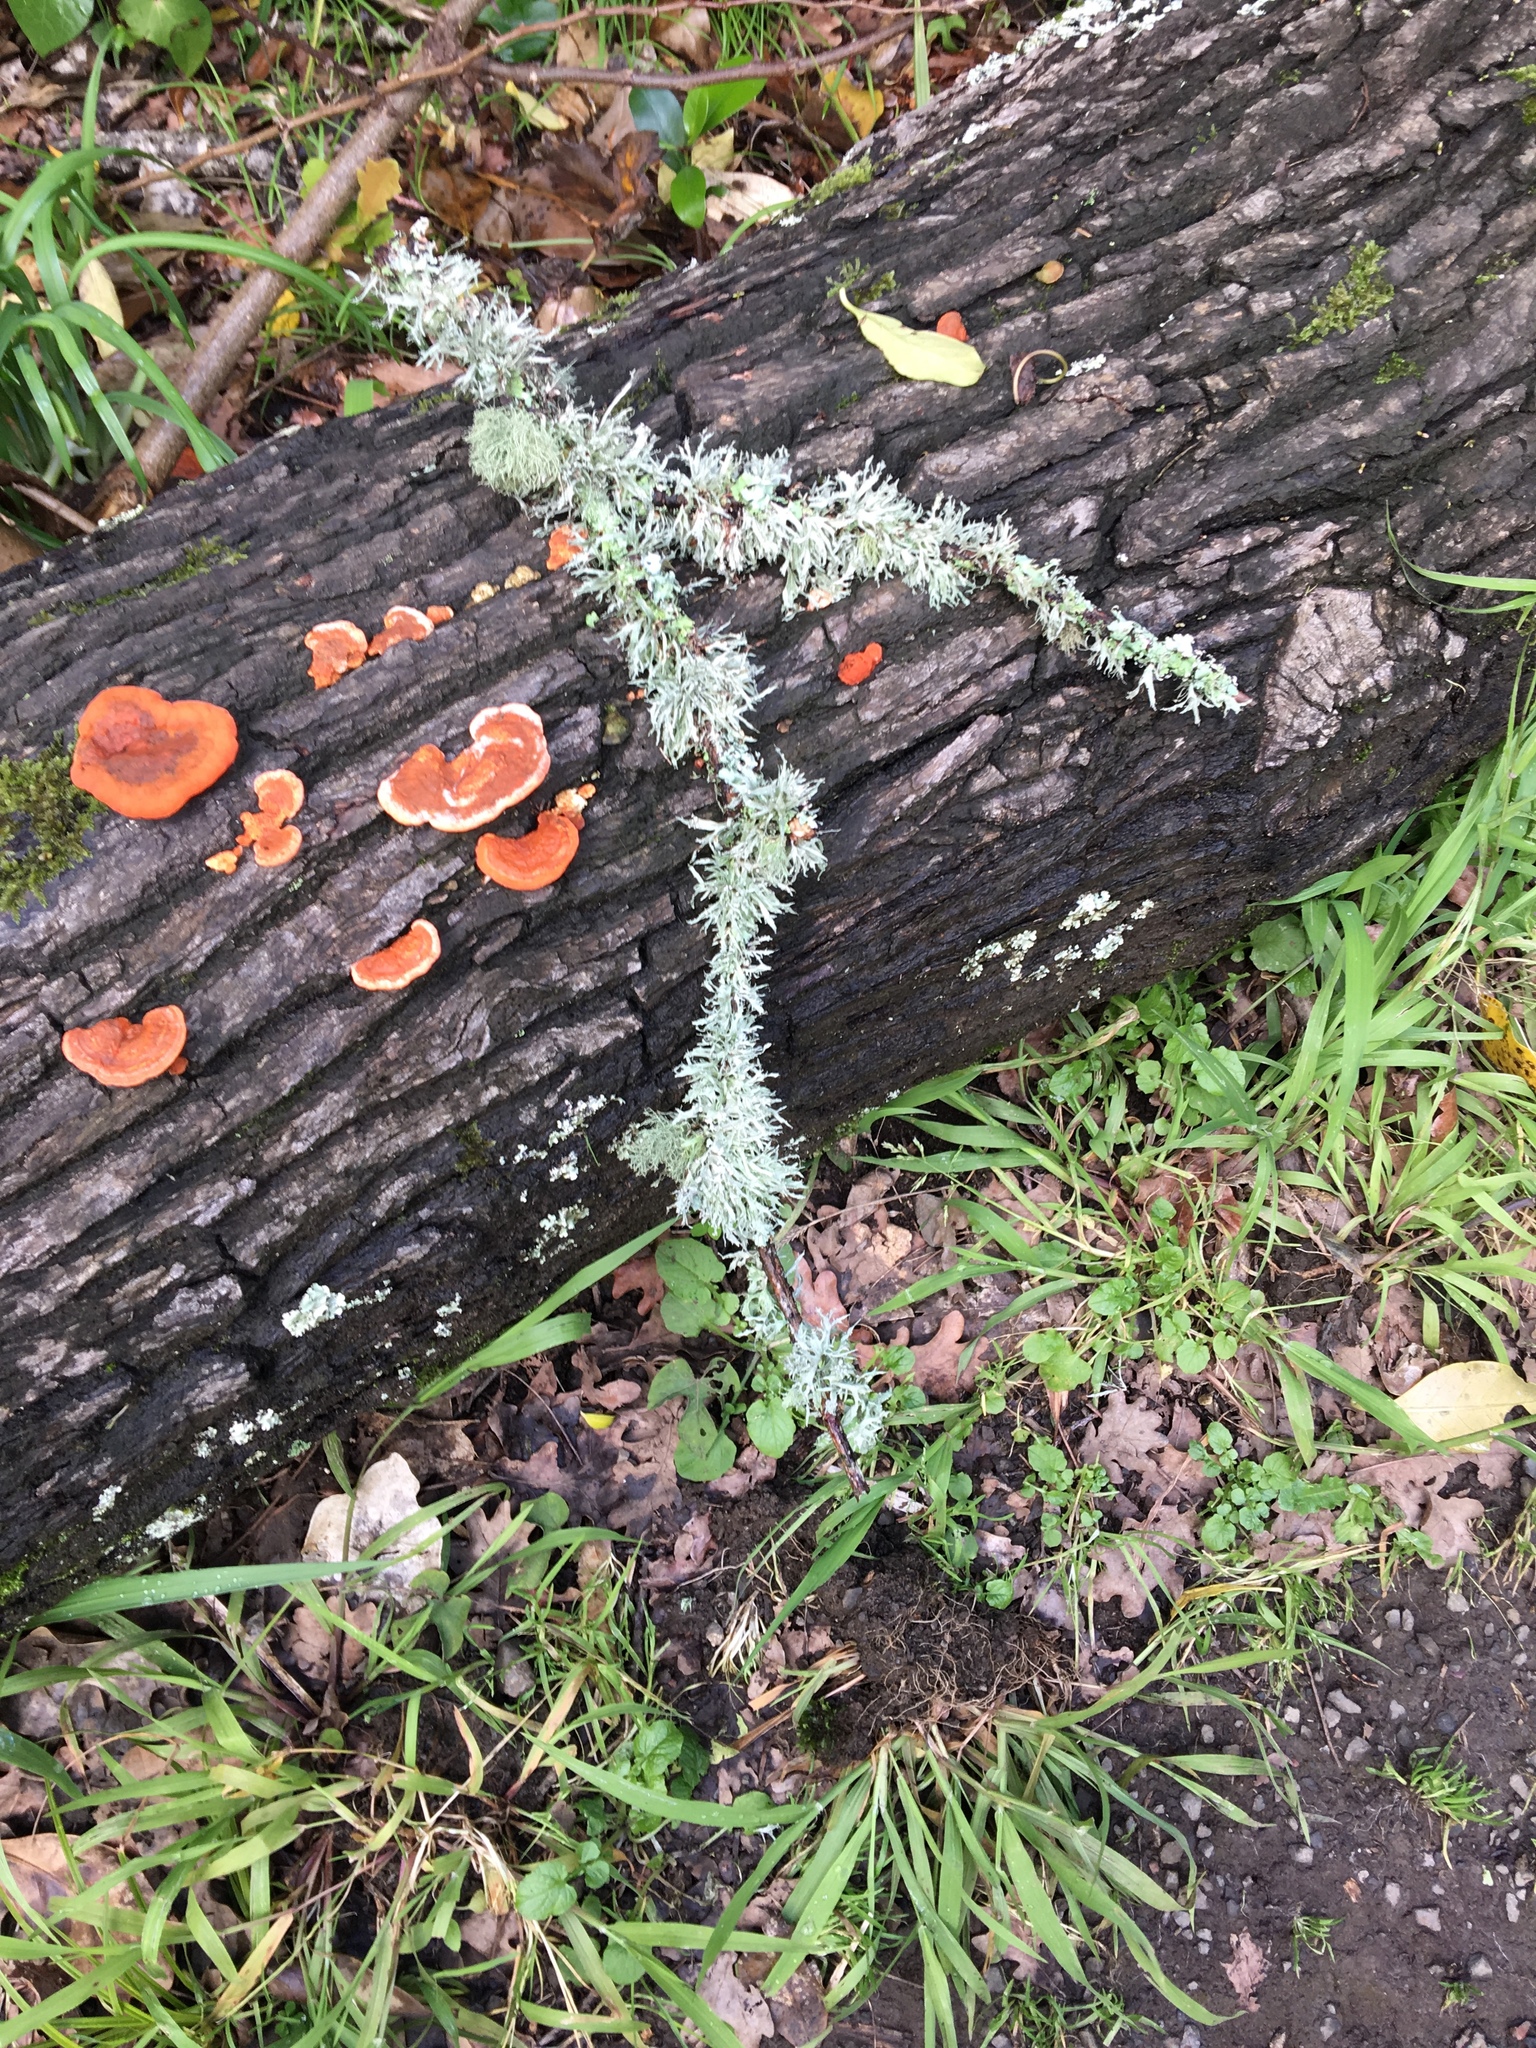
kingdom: Fungi
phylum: Basidiomycota
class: Agaricomycetes
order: Polyporales
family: Polyporaceae
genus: Trametes
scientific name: Trametes coccinea
